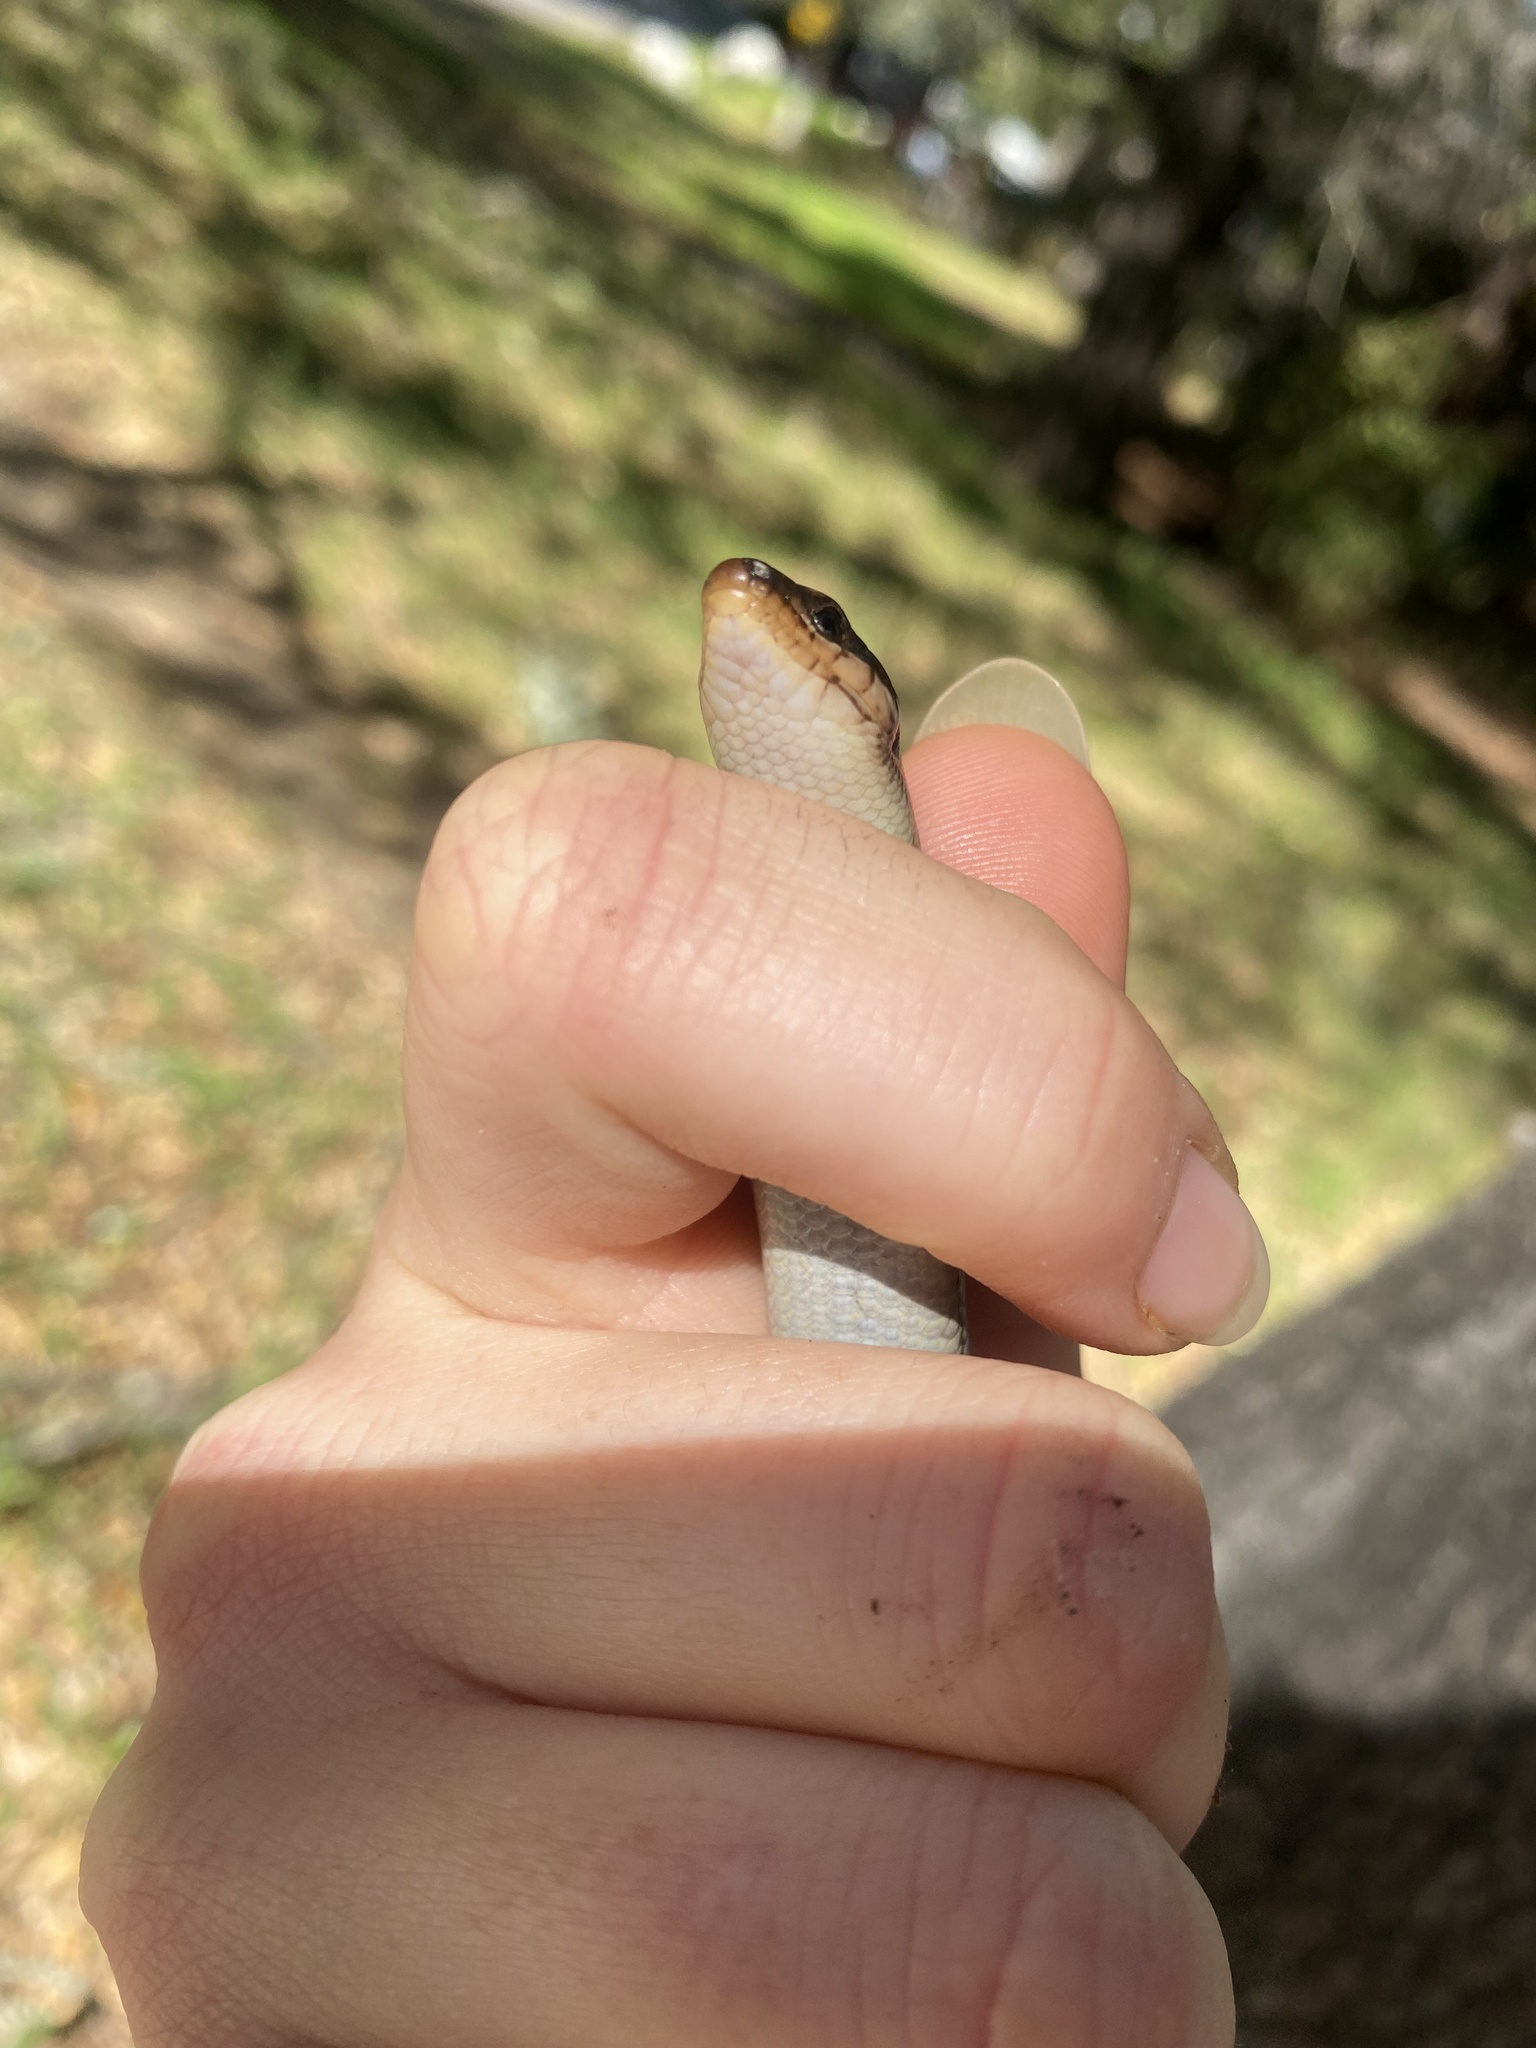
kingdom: Animalia
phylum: Chordata
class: Squamata
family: Scincidae
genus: Plestiodon
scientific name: Plestiodon skiltonianus
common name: Coronado island skink [interparietalis]
